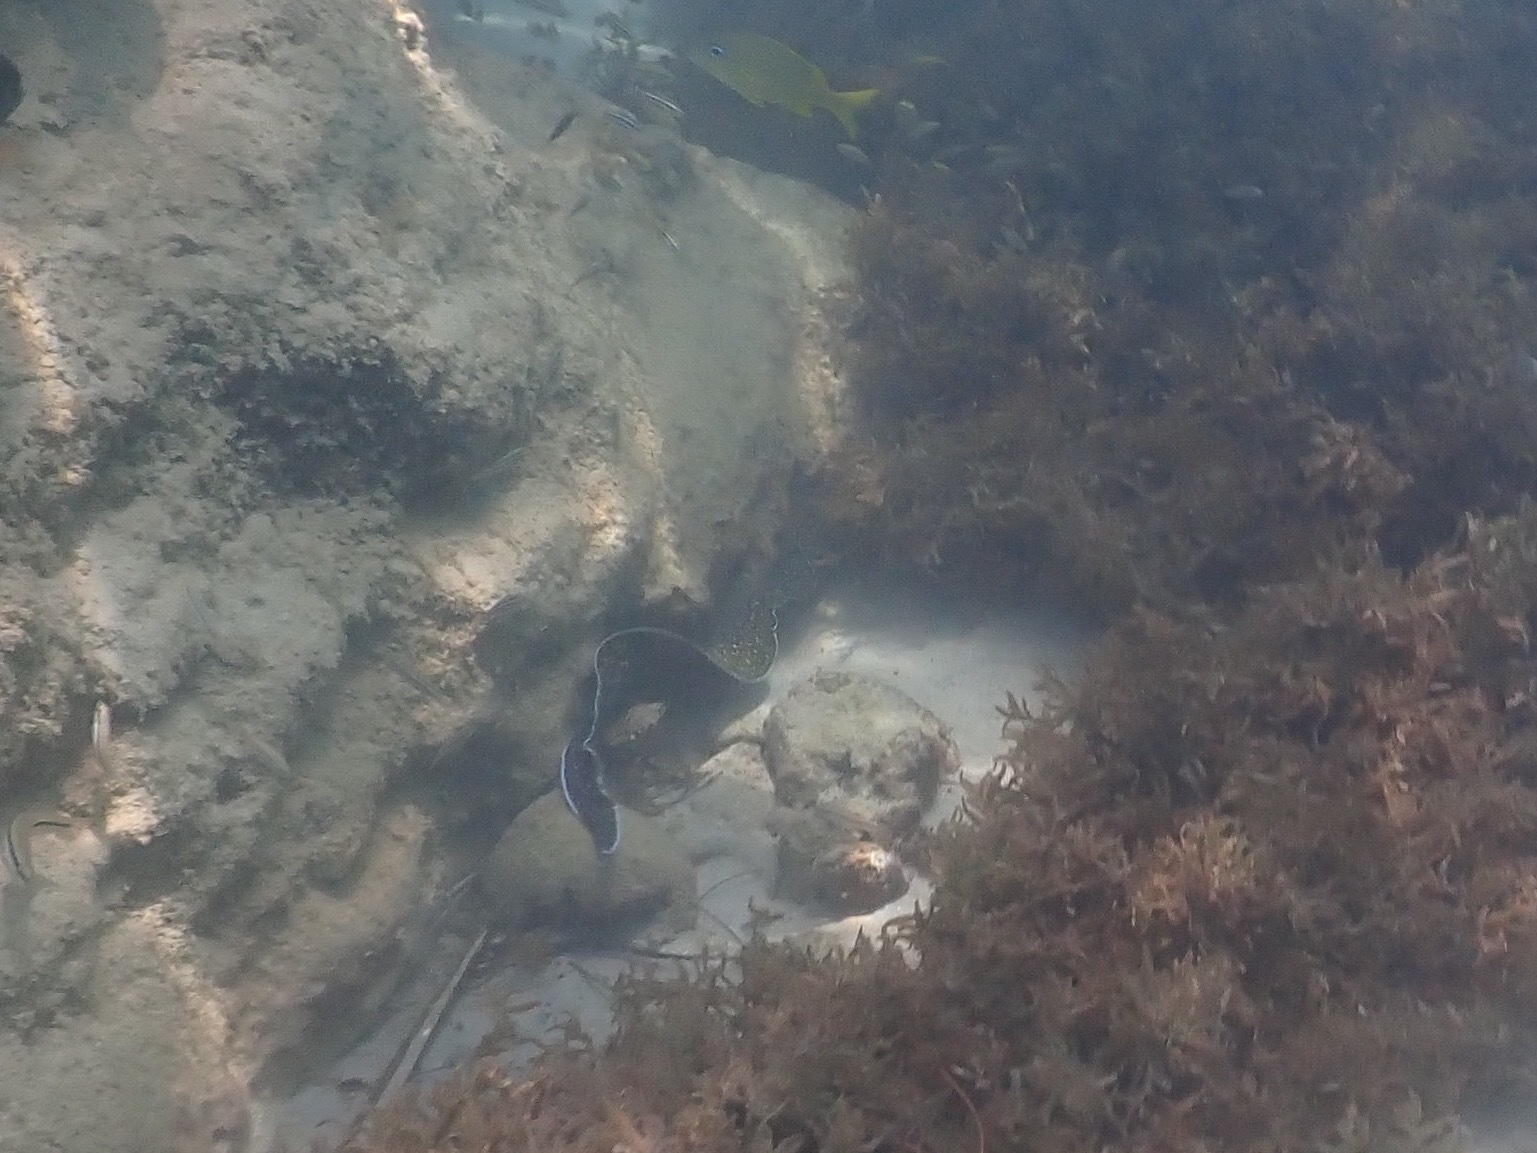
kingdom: Animalia
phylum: Chordata
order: Anguilliformes
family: Muraenidae
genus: Gymnothorax
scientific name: Gymnothorax moringa
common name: Spotted moray
